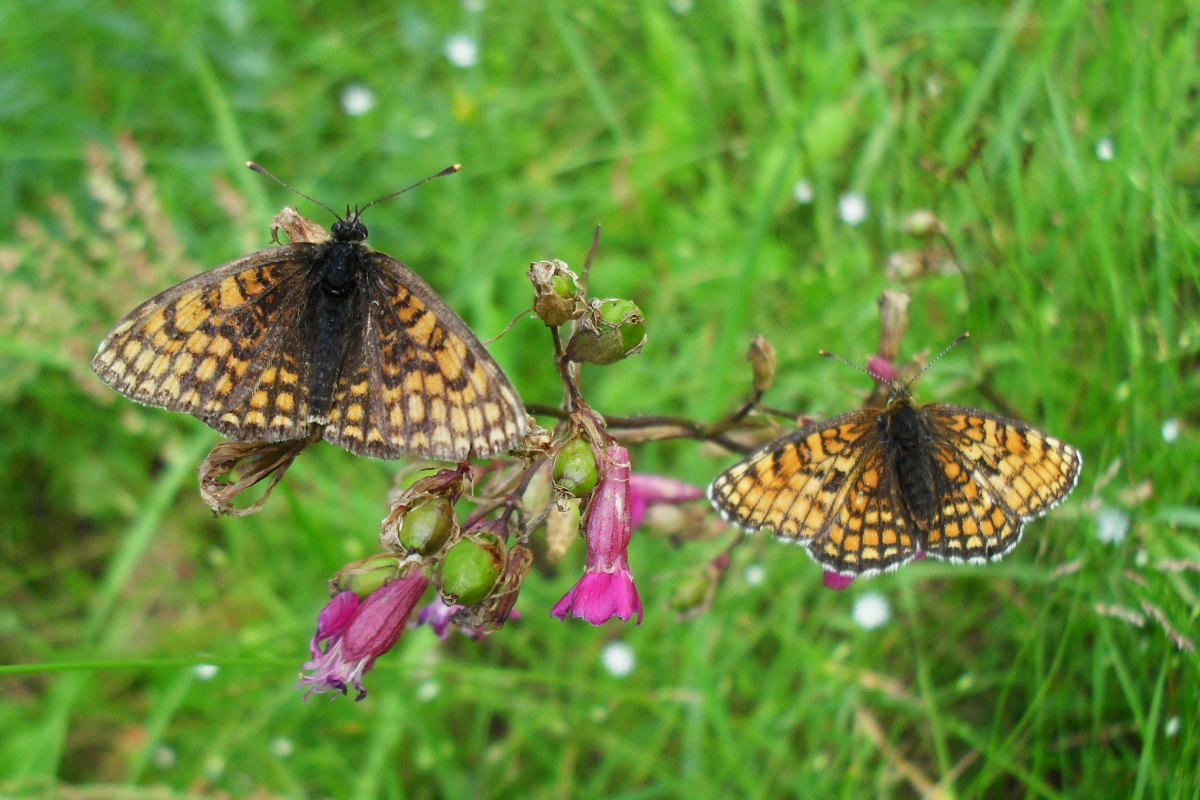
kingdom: Animalia
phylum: Arthropoda
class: Insecta
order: Lepidoptera
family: Nymphalidae
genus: Melitaea
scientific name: Melitaea athalia
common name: Heath fritillary
